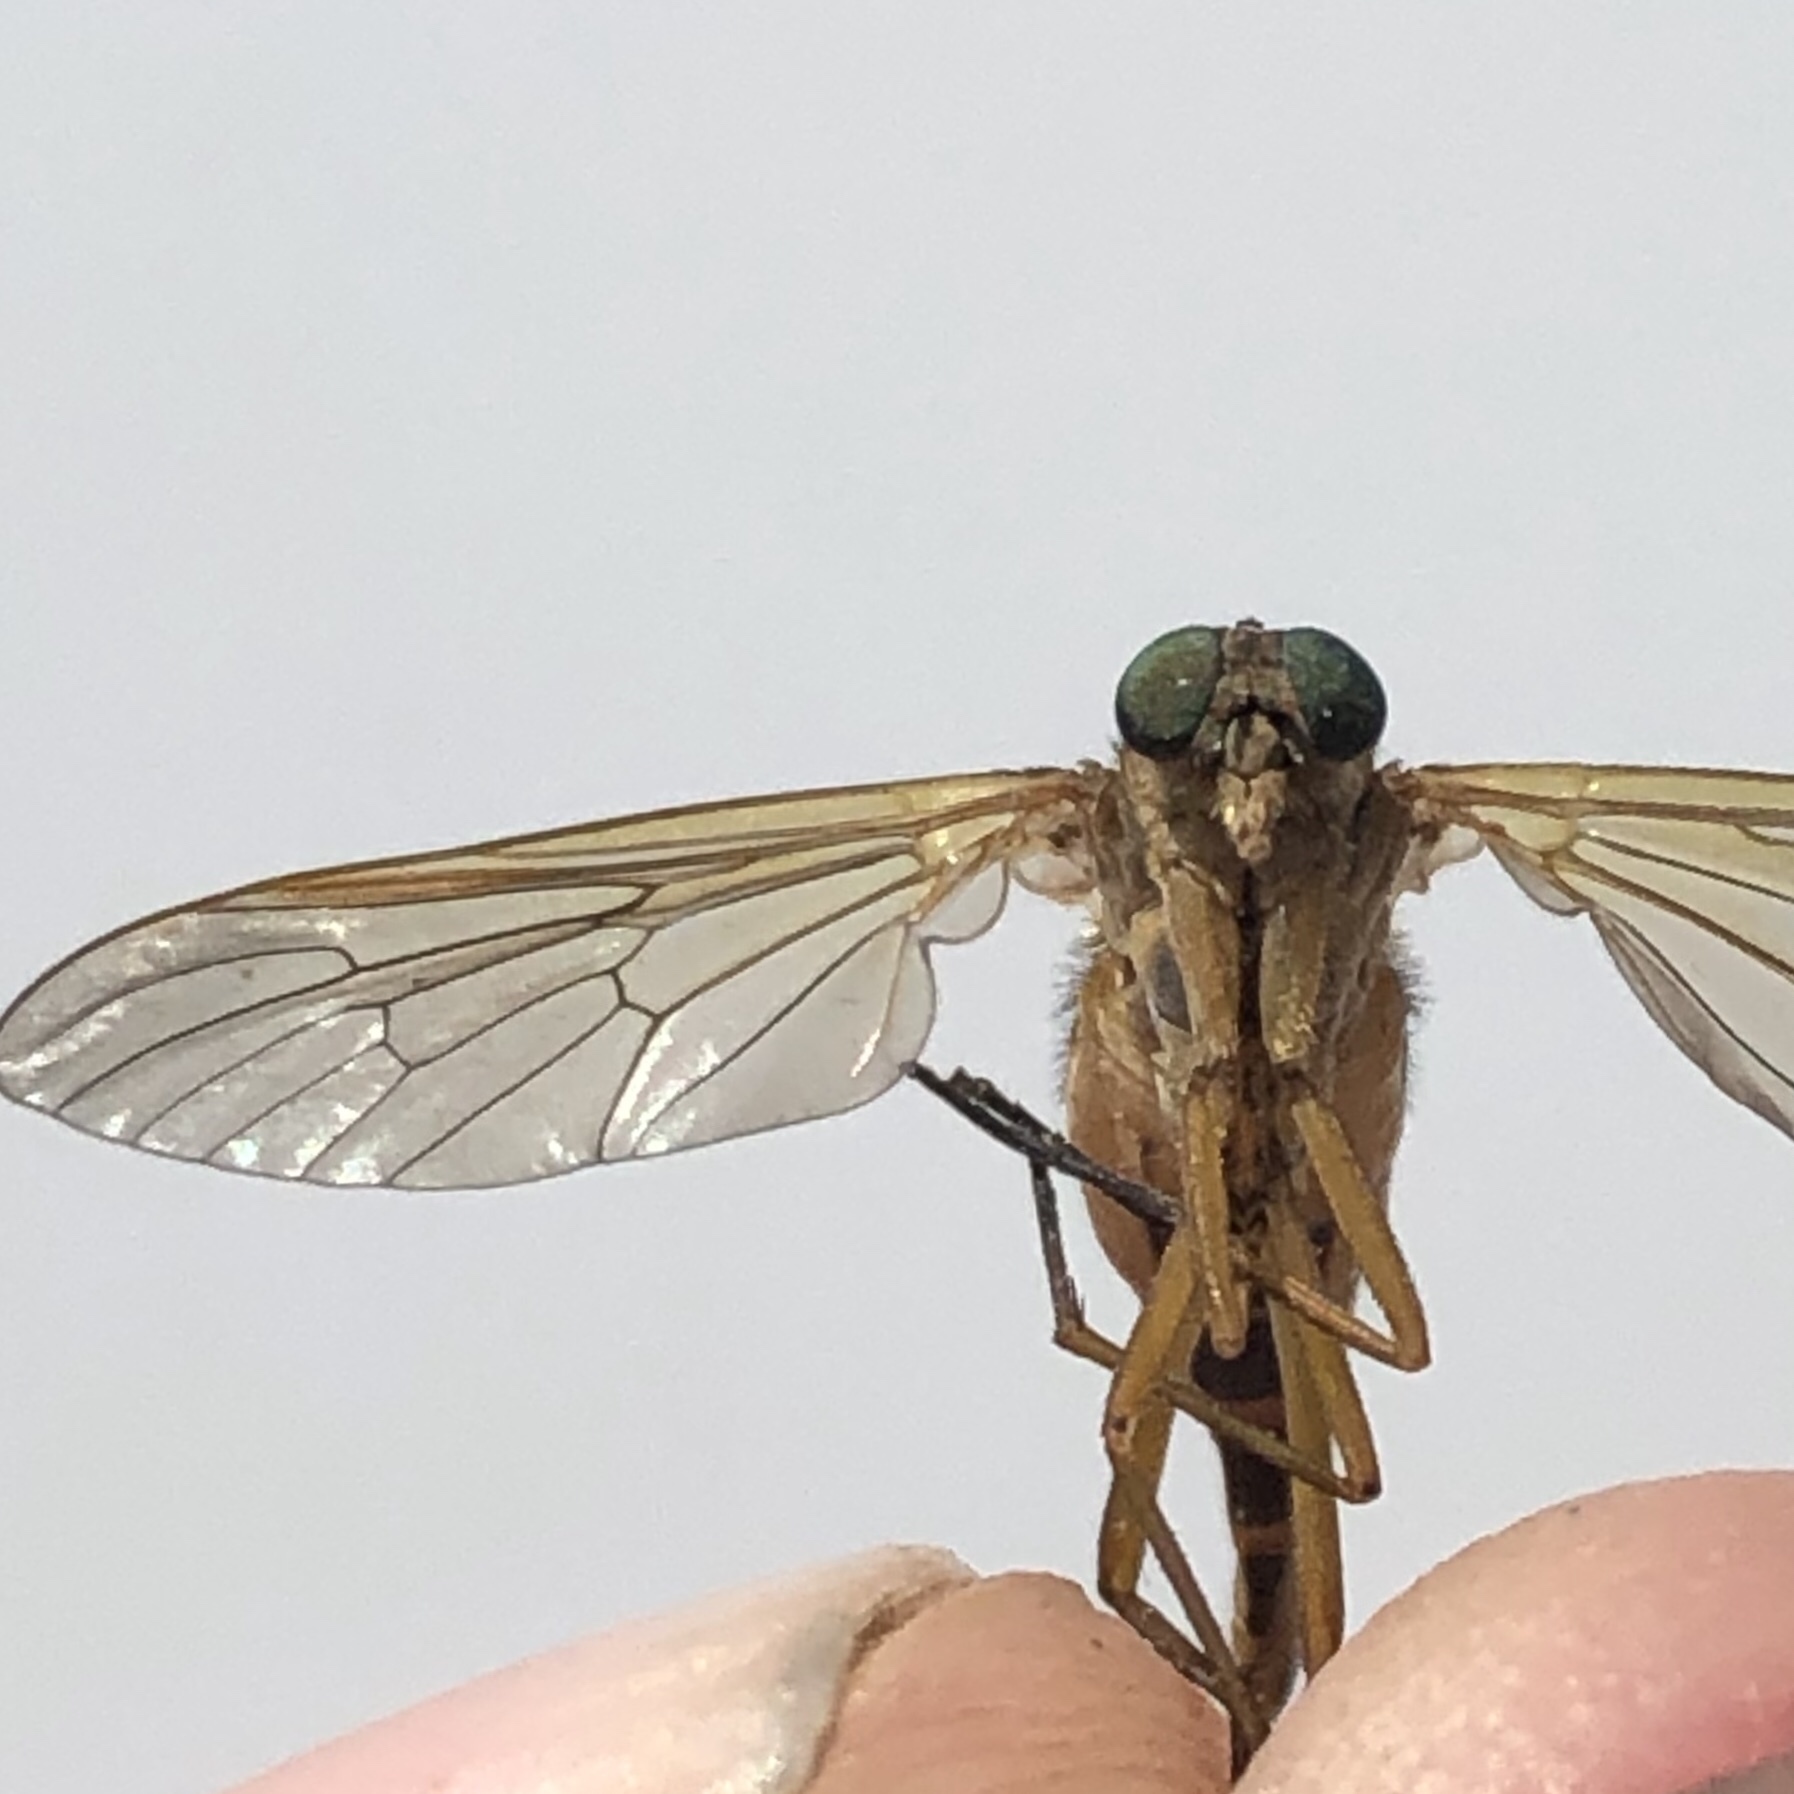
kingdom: Animalia
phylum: Arthropoda
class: Insecta
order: Diptera
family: Rhagionidae
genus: Rhagio
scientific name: Rhagio tringaria
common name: Marsh snipefly
